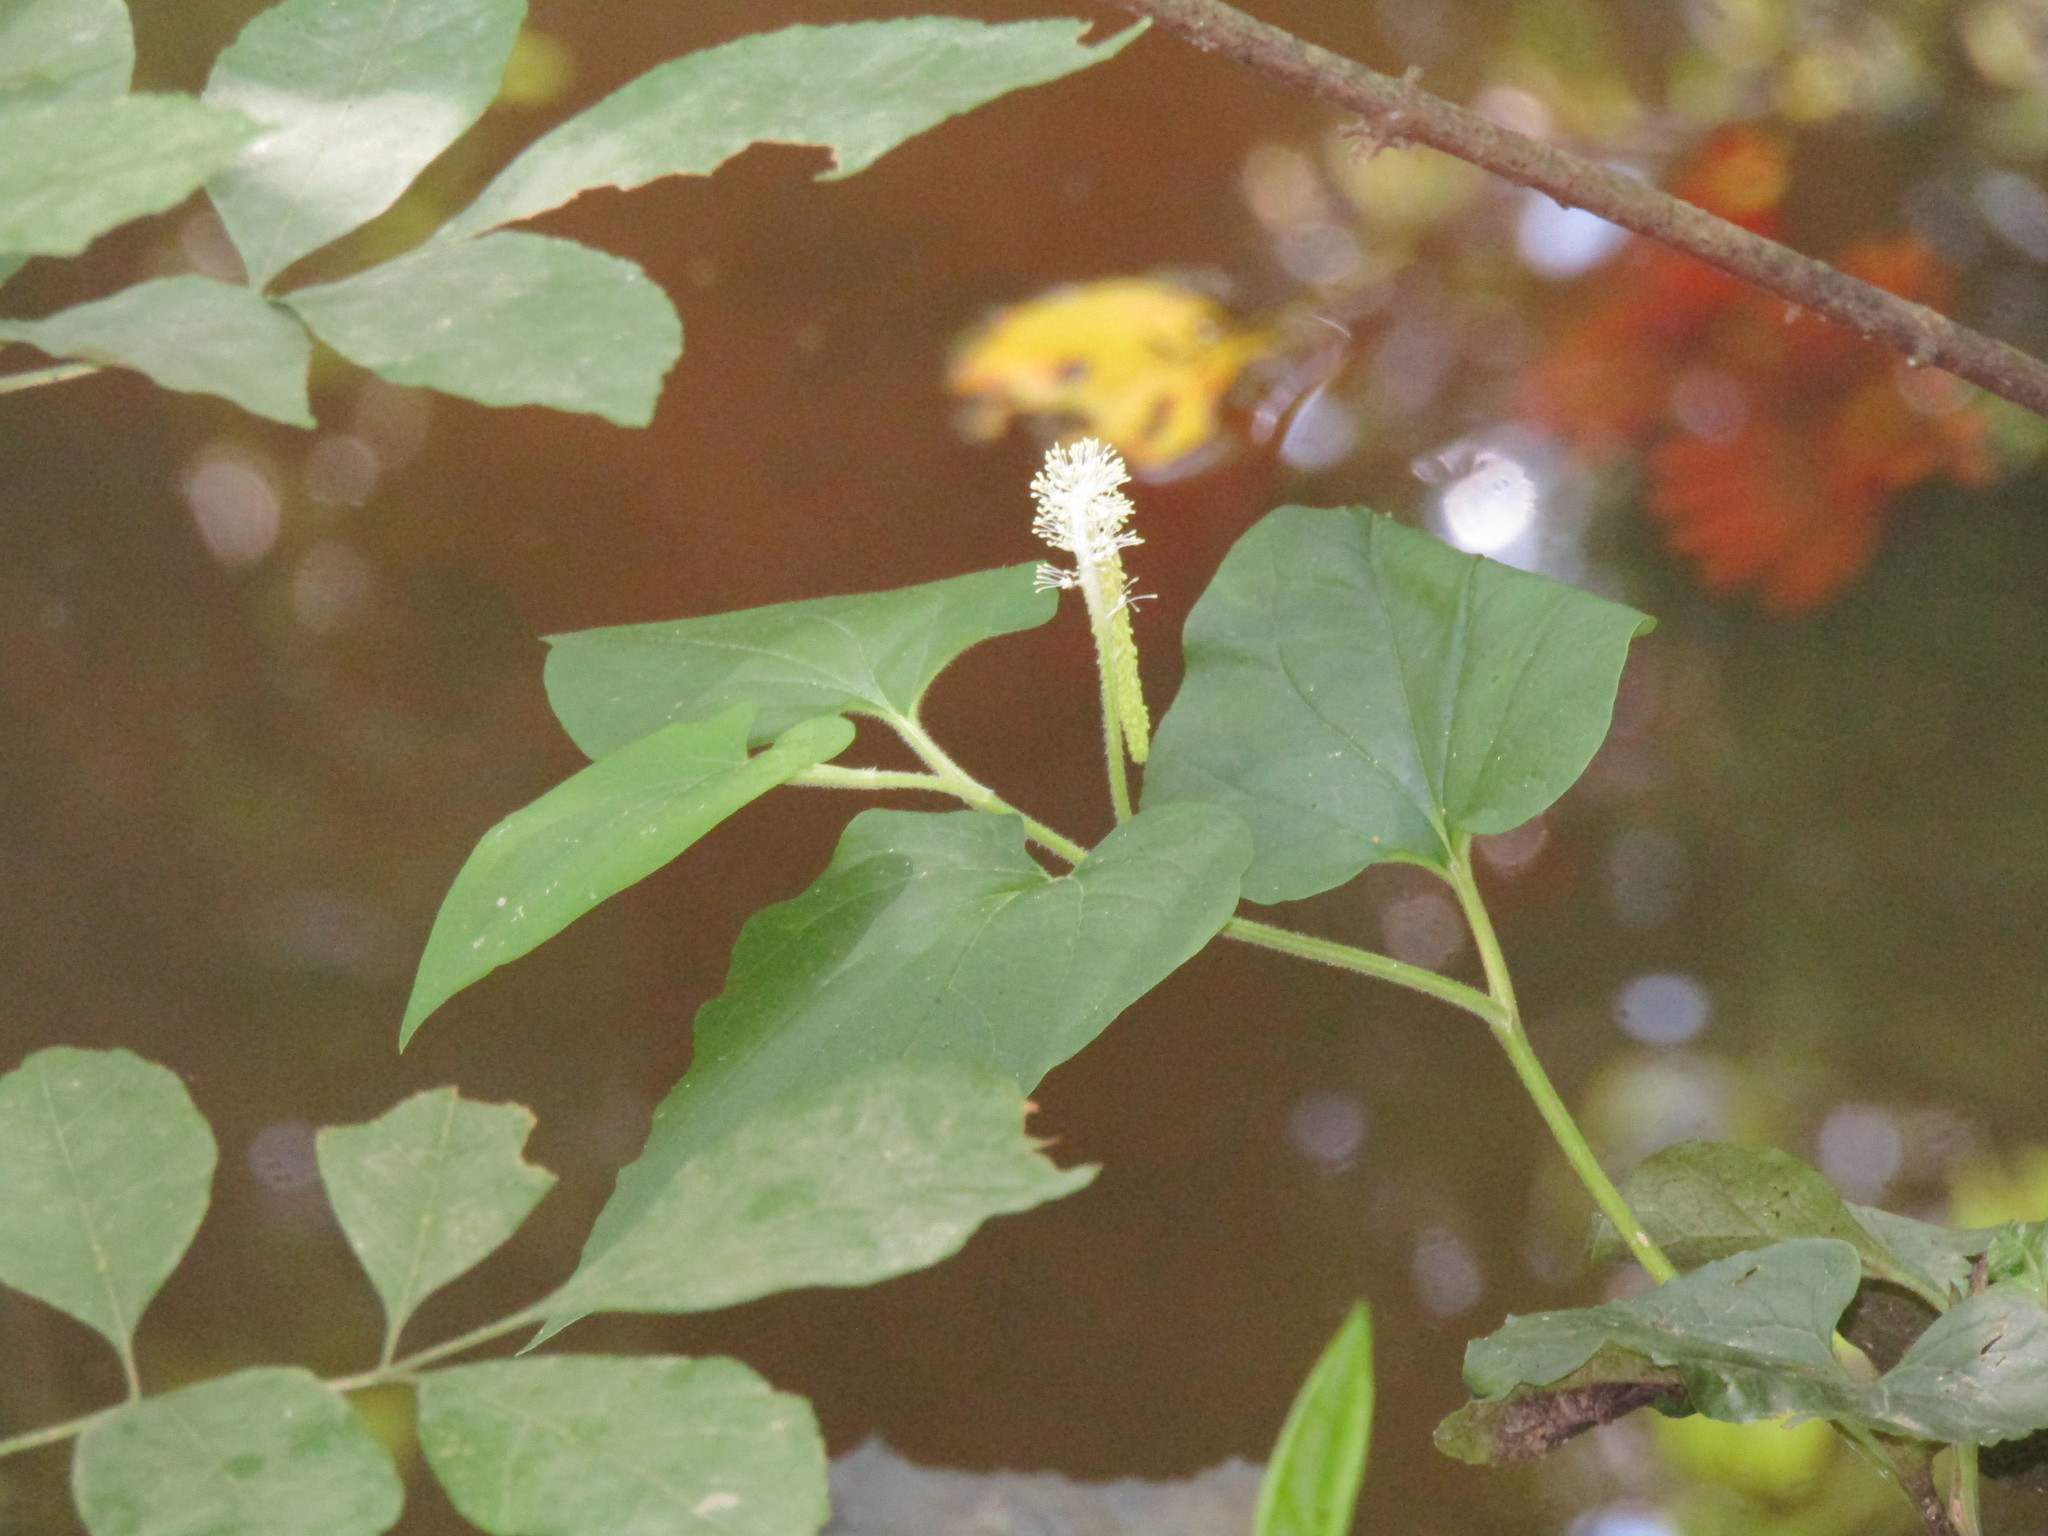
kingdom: Plantae
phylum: Tracheophyta
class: Magnoliopsida
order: Piperales
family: Saururaceae
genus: Saururus
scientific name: Saururus cernuus
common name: Lizard's-tail
